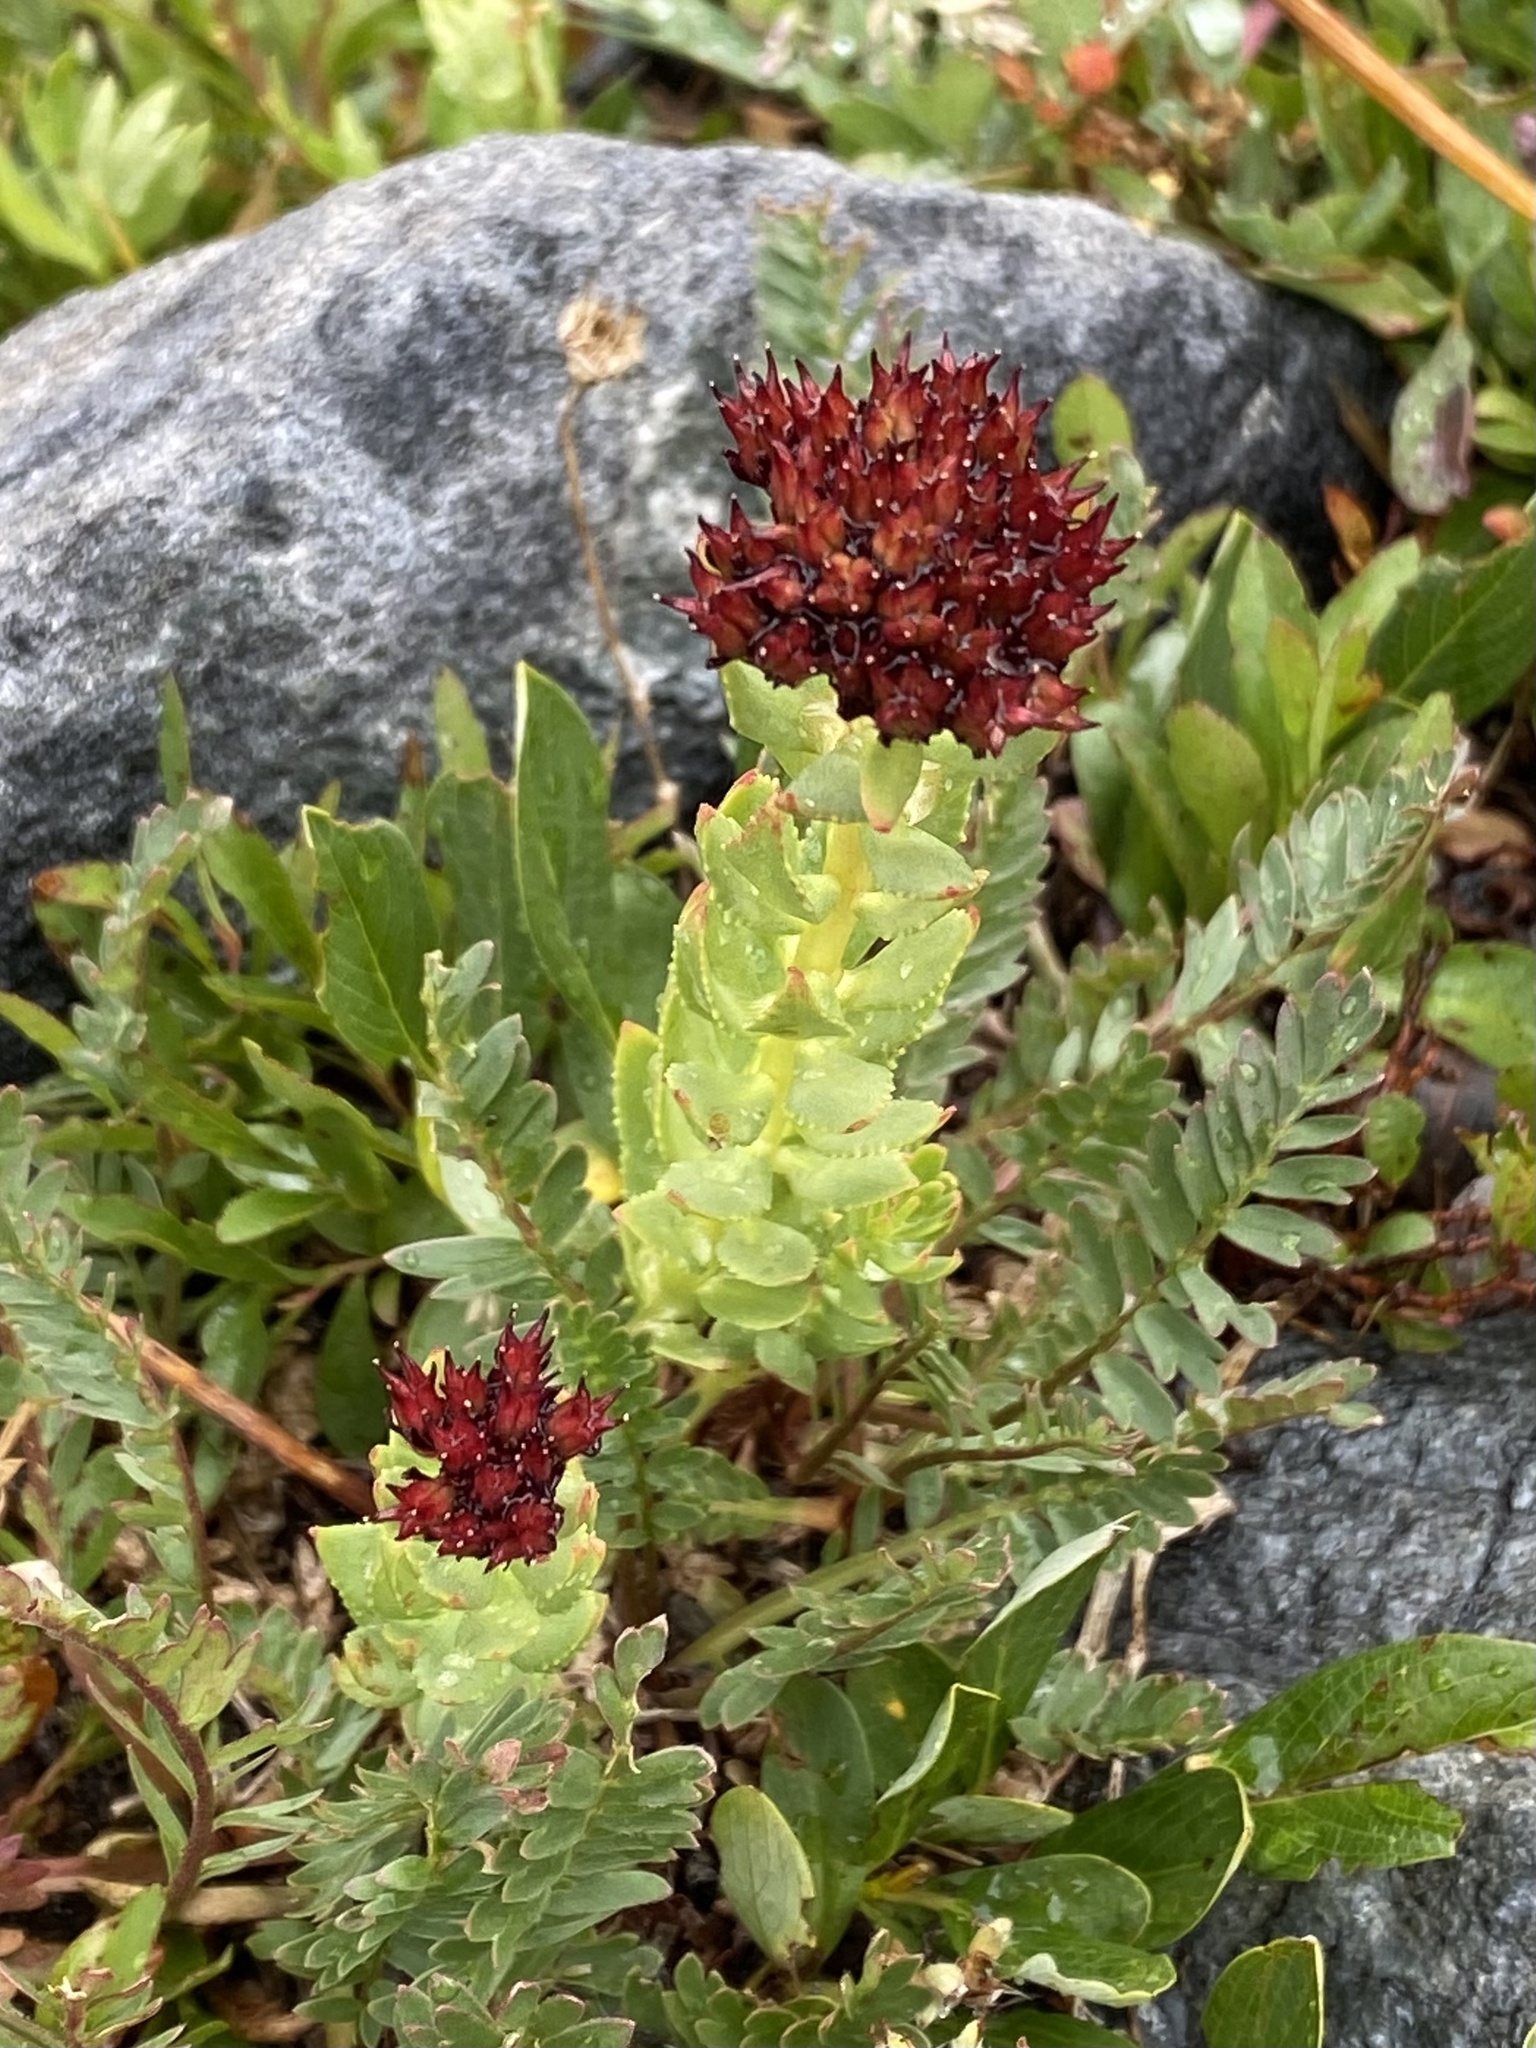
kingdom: Plantae
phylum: Tracheophyta
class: Magnoliopsida
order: Saxifragales
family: Crassulaceae
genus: Rhodiola
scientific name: Rhodiola integrifolia
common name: Western roseroot
